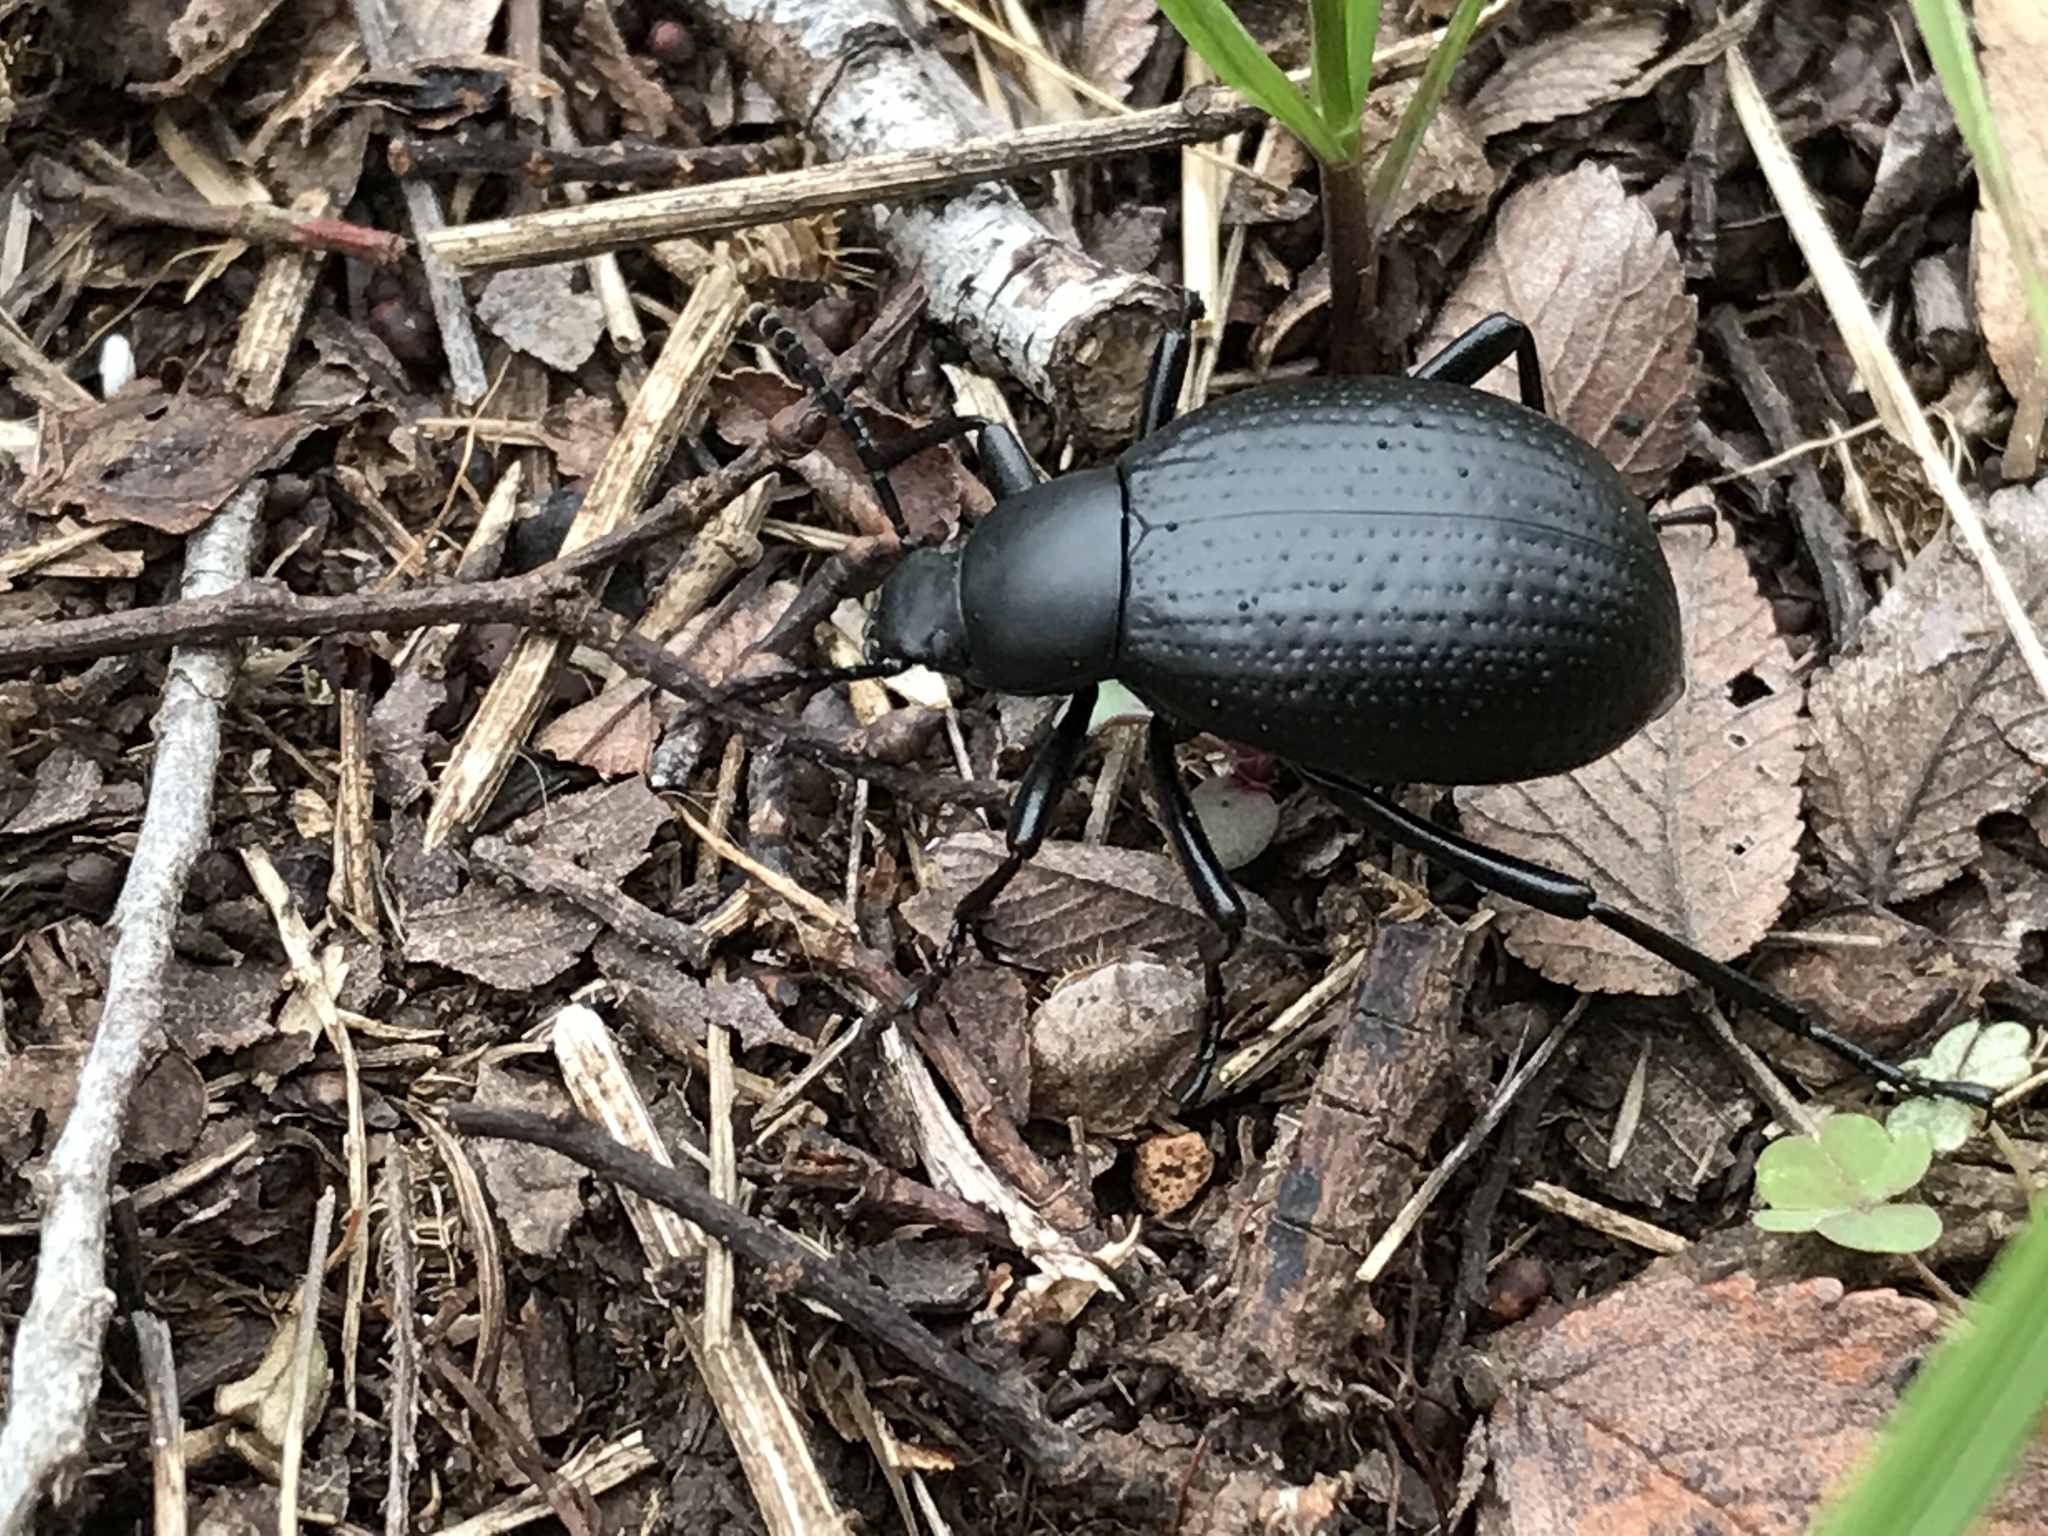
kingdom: Animalia
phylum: Arthropoda
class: Insecta
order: Coleoptera
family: Tenebrionidae
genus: Eleodes
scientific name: Eleodes goryi
